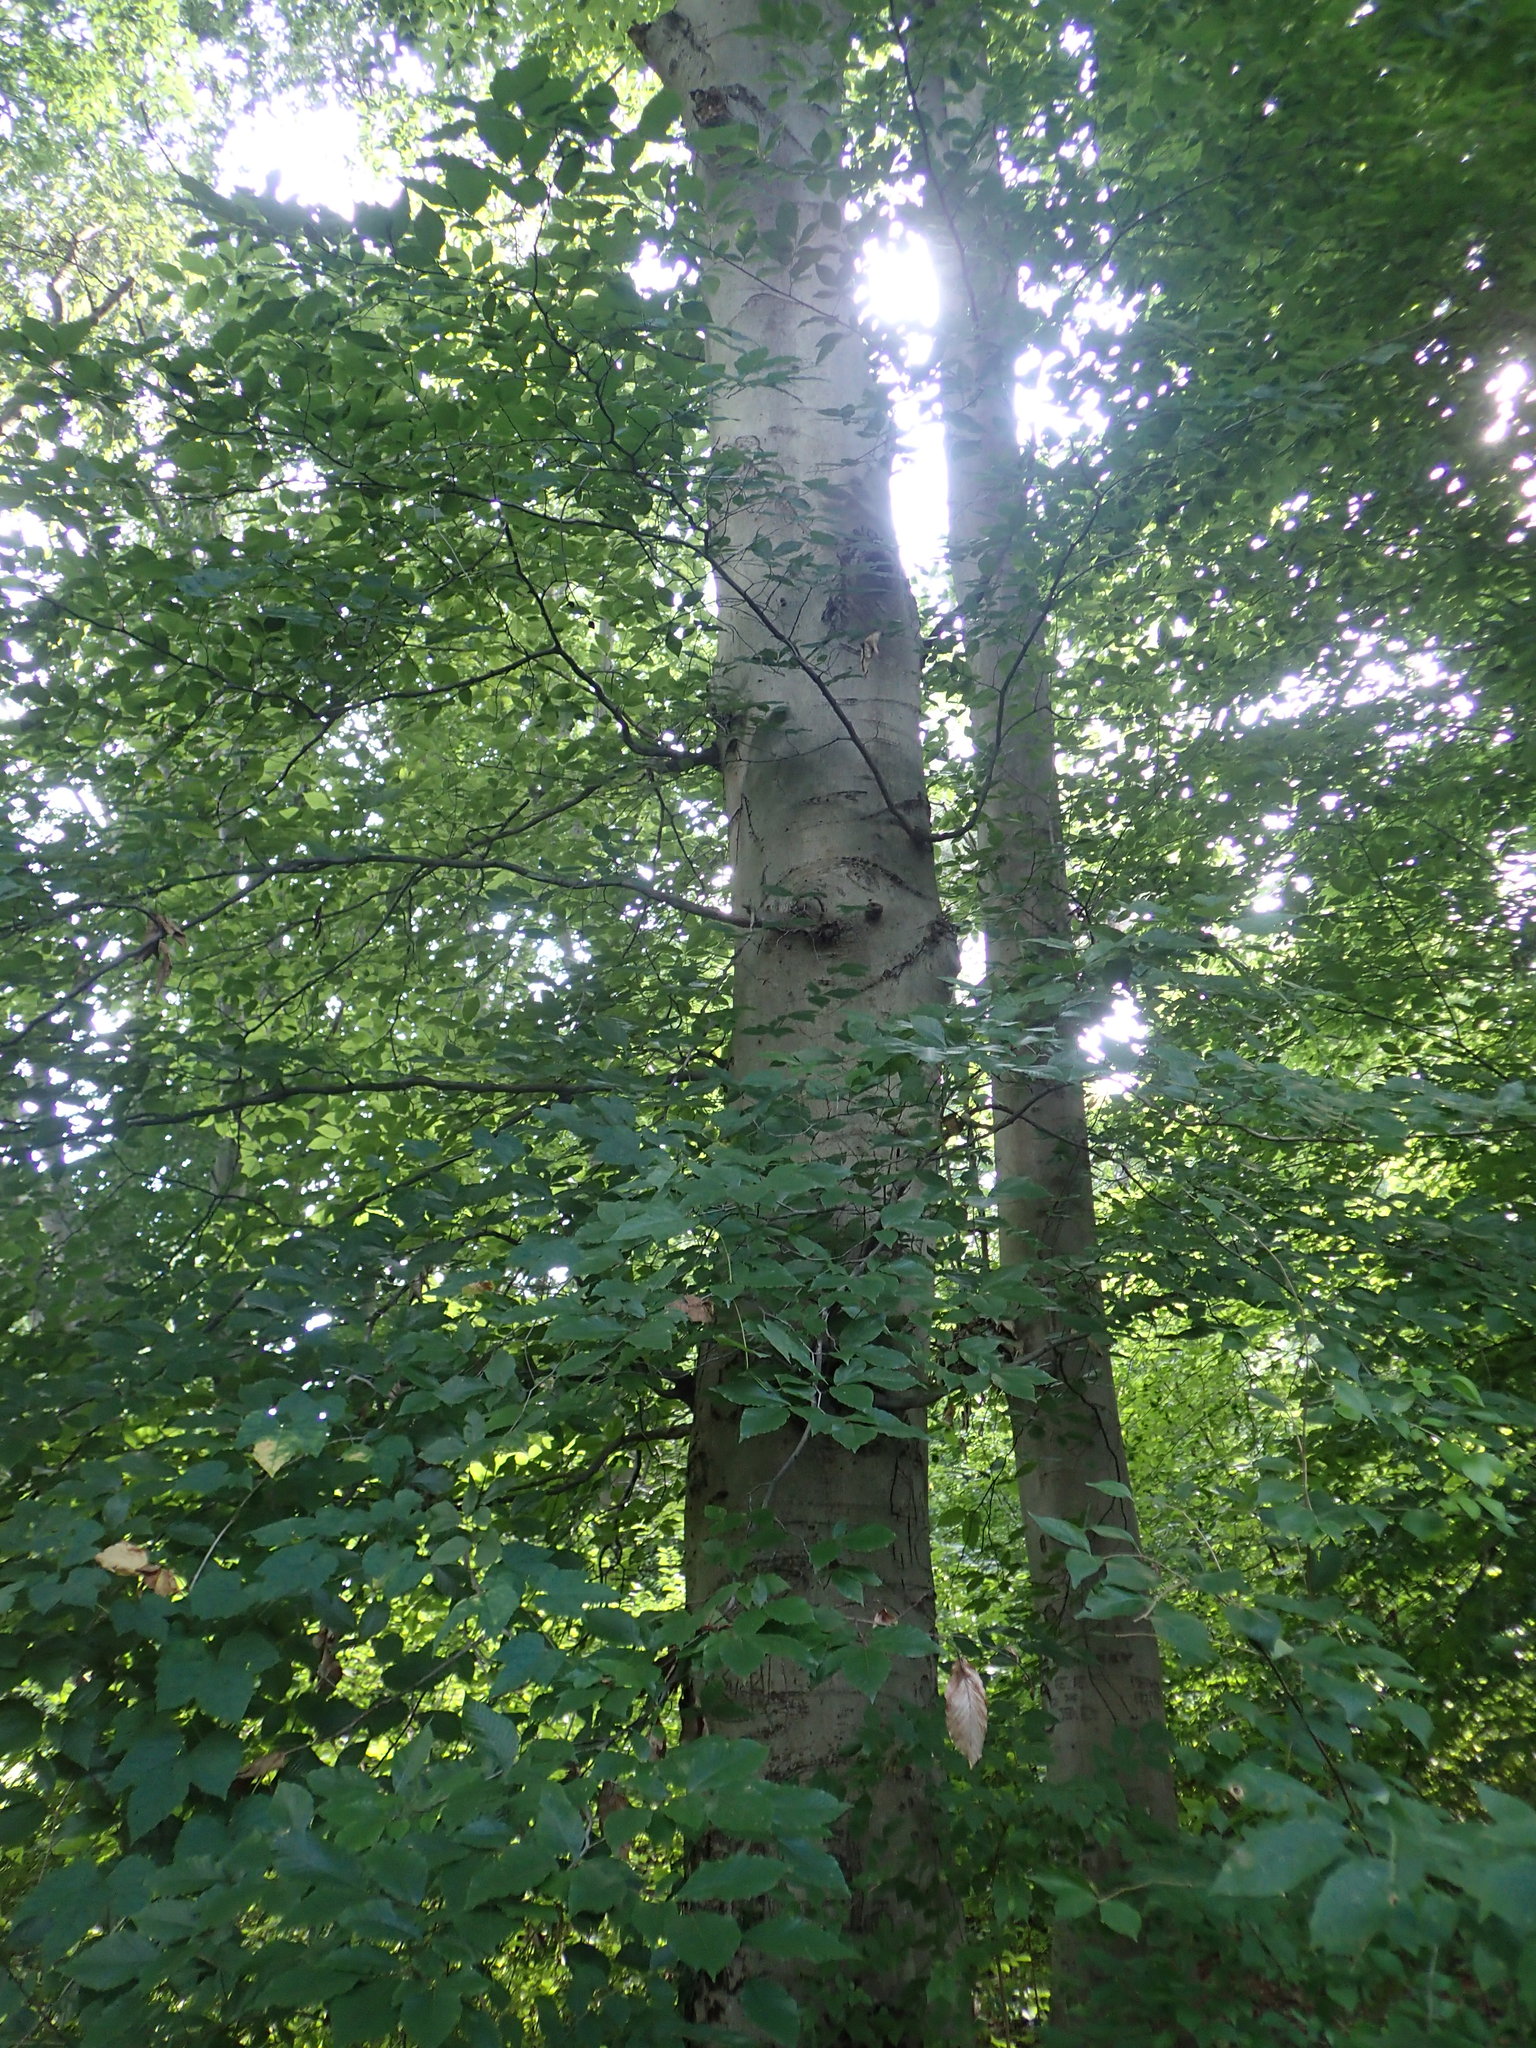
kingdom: Plantae
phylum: Tracheophyta
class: Magnoliopsida
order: Fagales
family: Fagaceae
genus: Fagus
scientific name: Fagus grandifolia
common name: American beech
